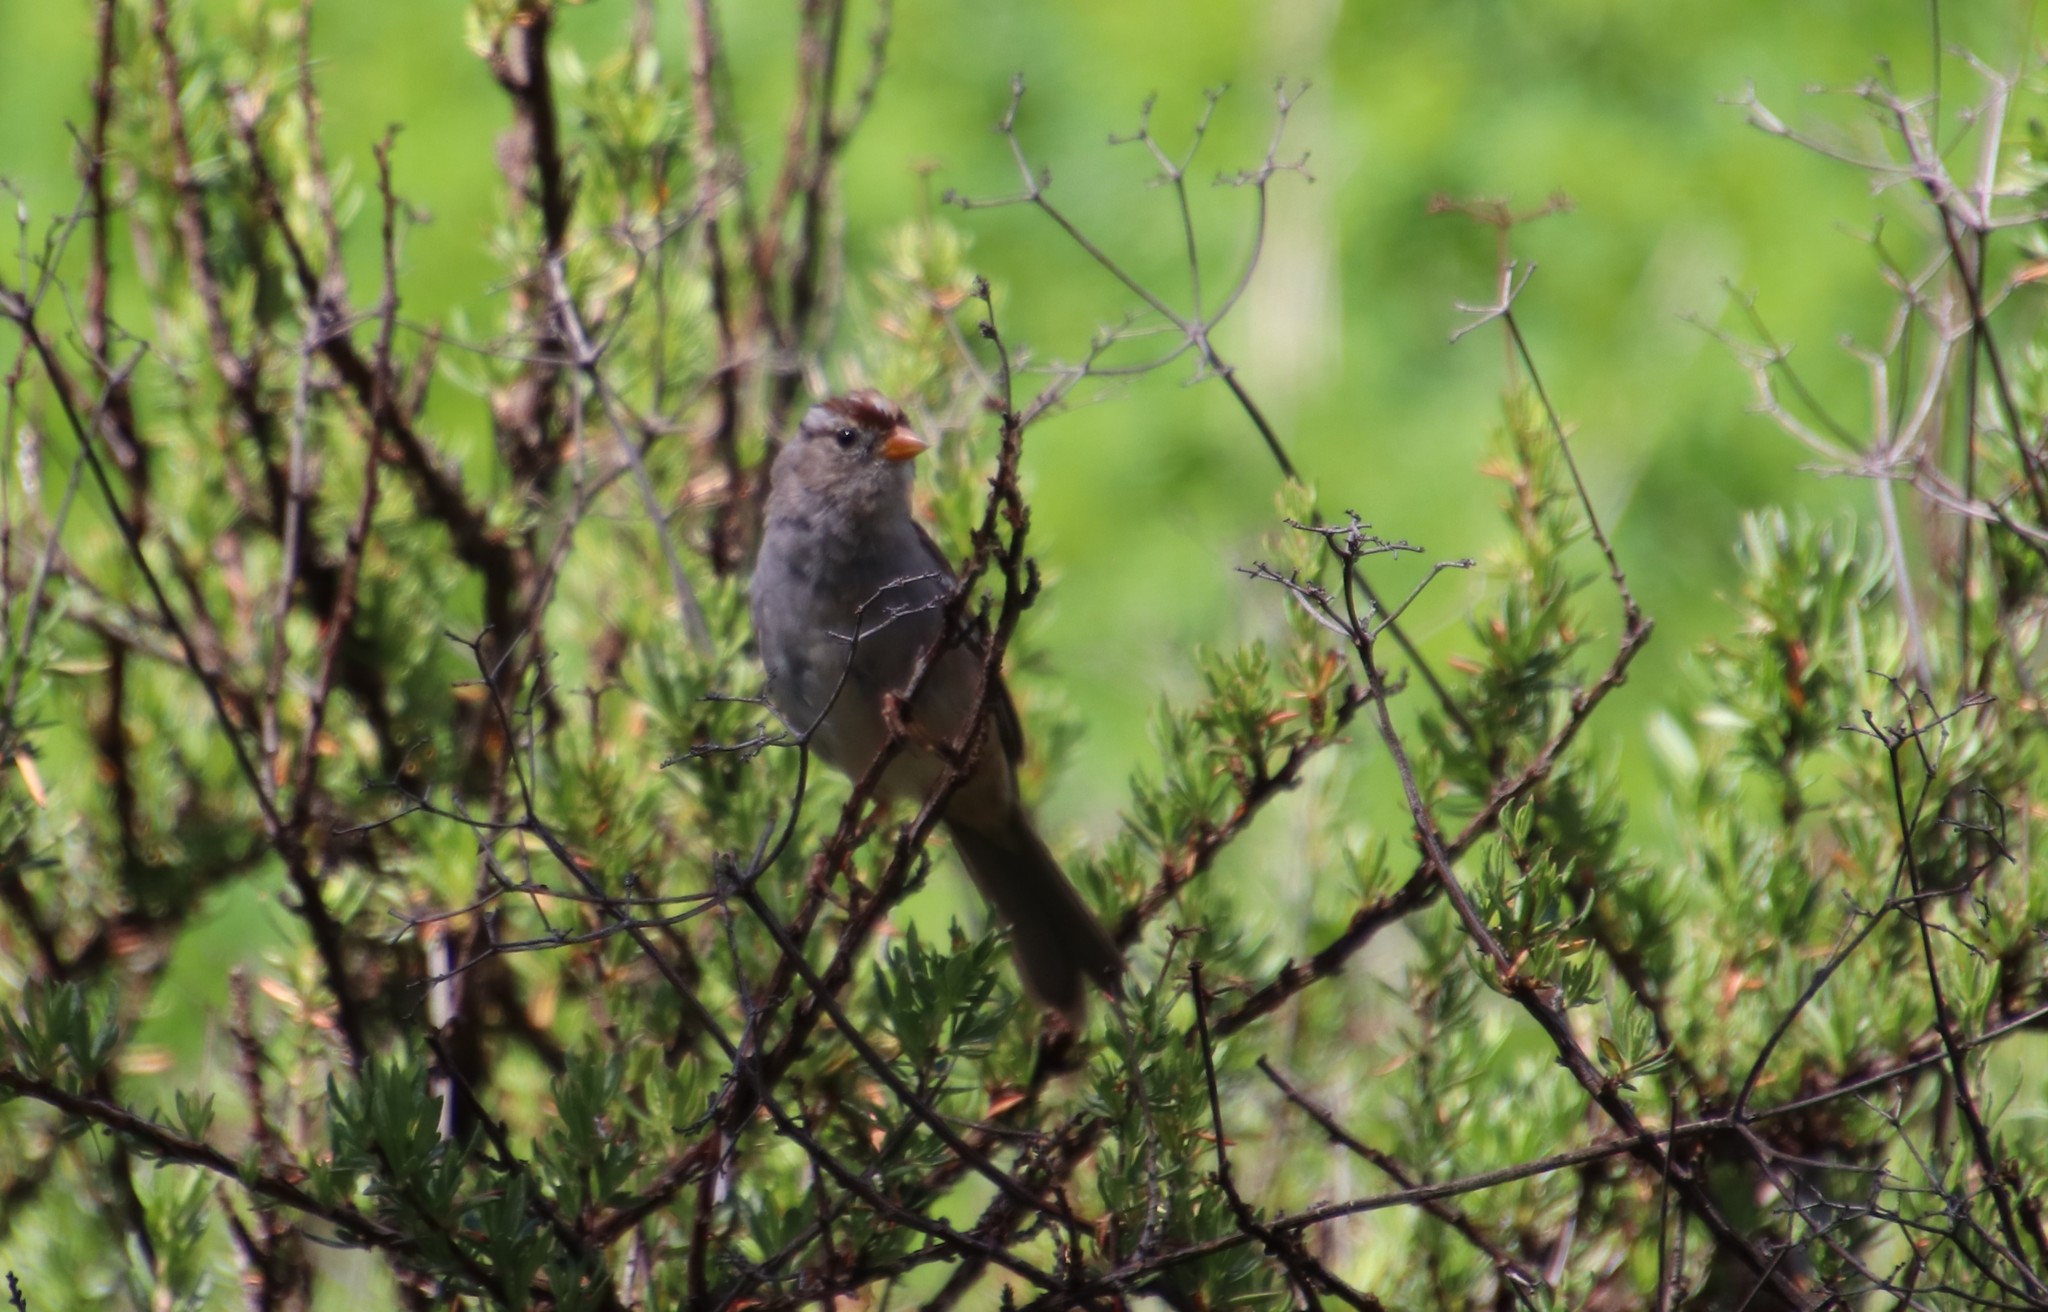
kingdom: Animalia
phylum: Chordata
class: Aves
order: Passeriformes
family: Passerellidae
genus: Zonotrichia
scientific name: Zonotrichia leucophrys
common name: White-crowned sparrow
